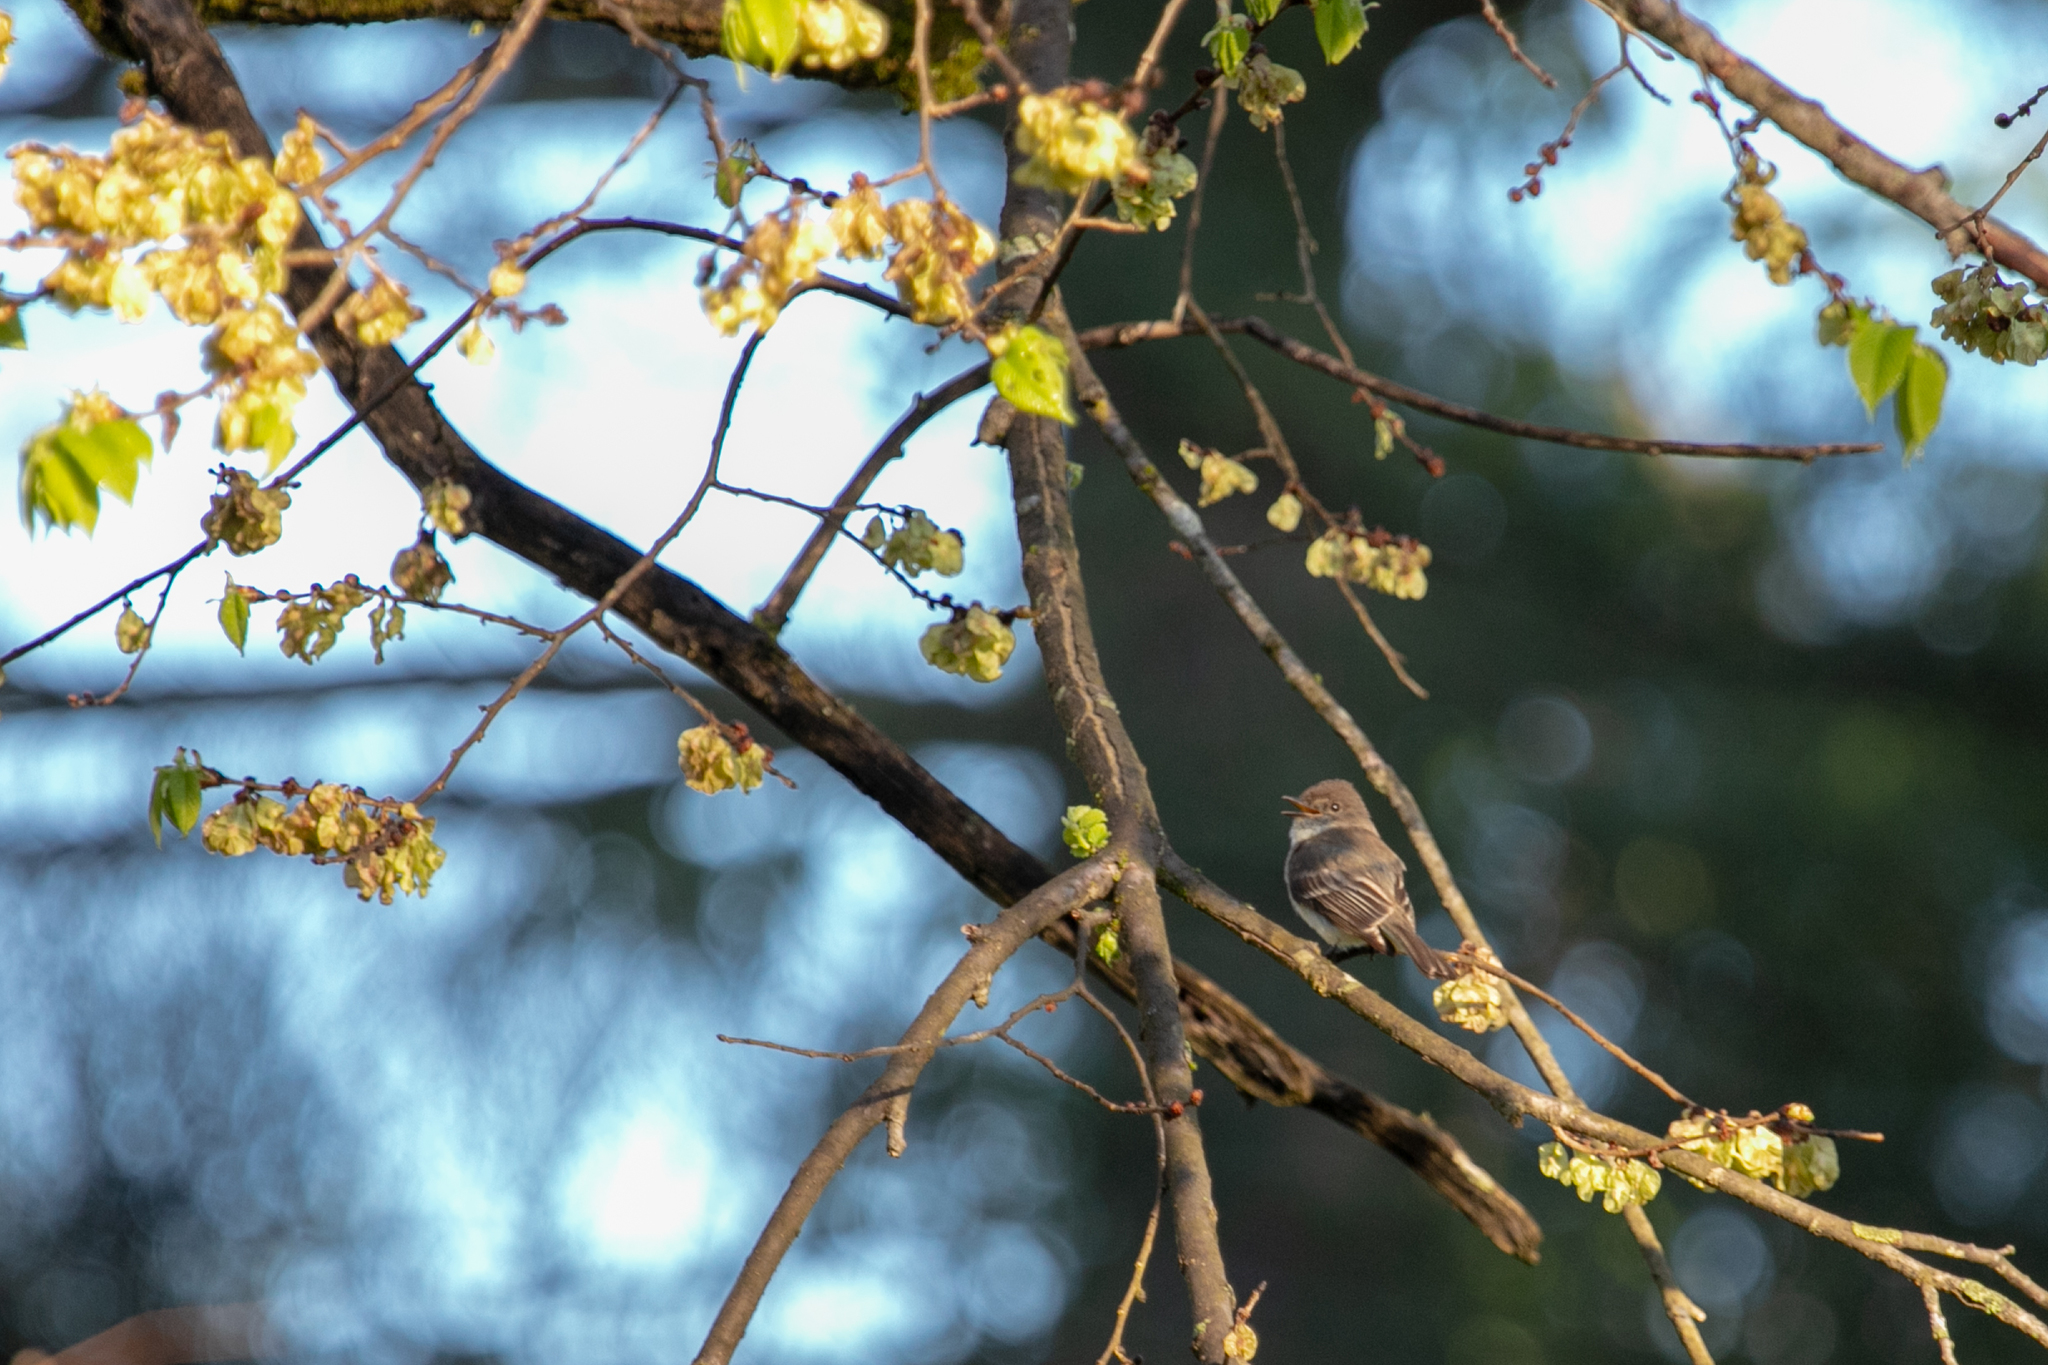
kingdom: Animalia
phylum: Chordata
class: Aves
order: Passeriformes
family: Tyrannidae
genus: Sayornis
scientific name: Sayornis phoebe
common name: Eastern phoebe
